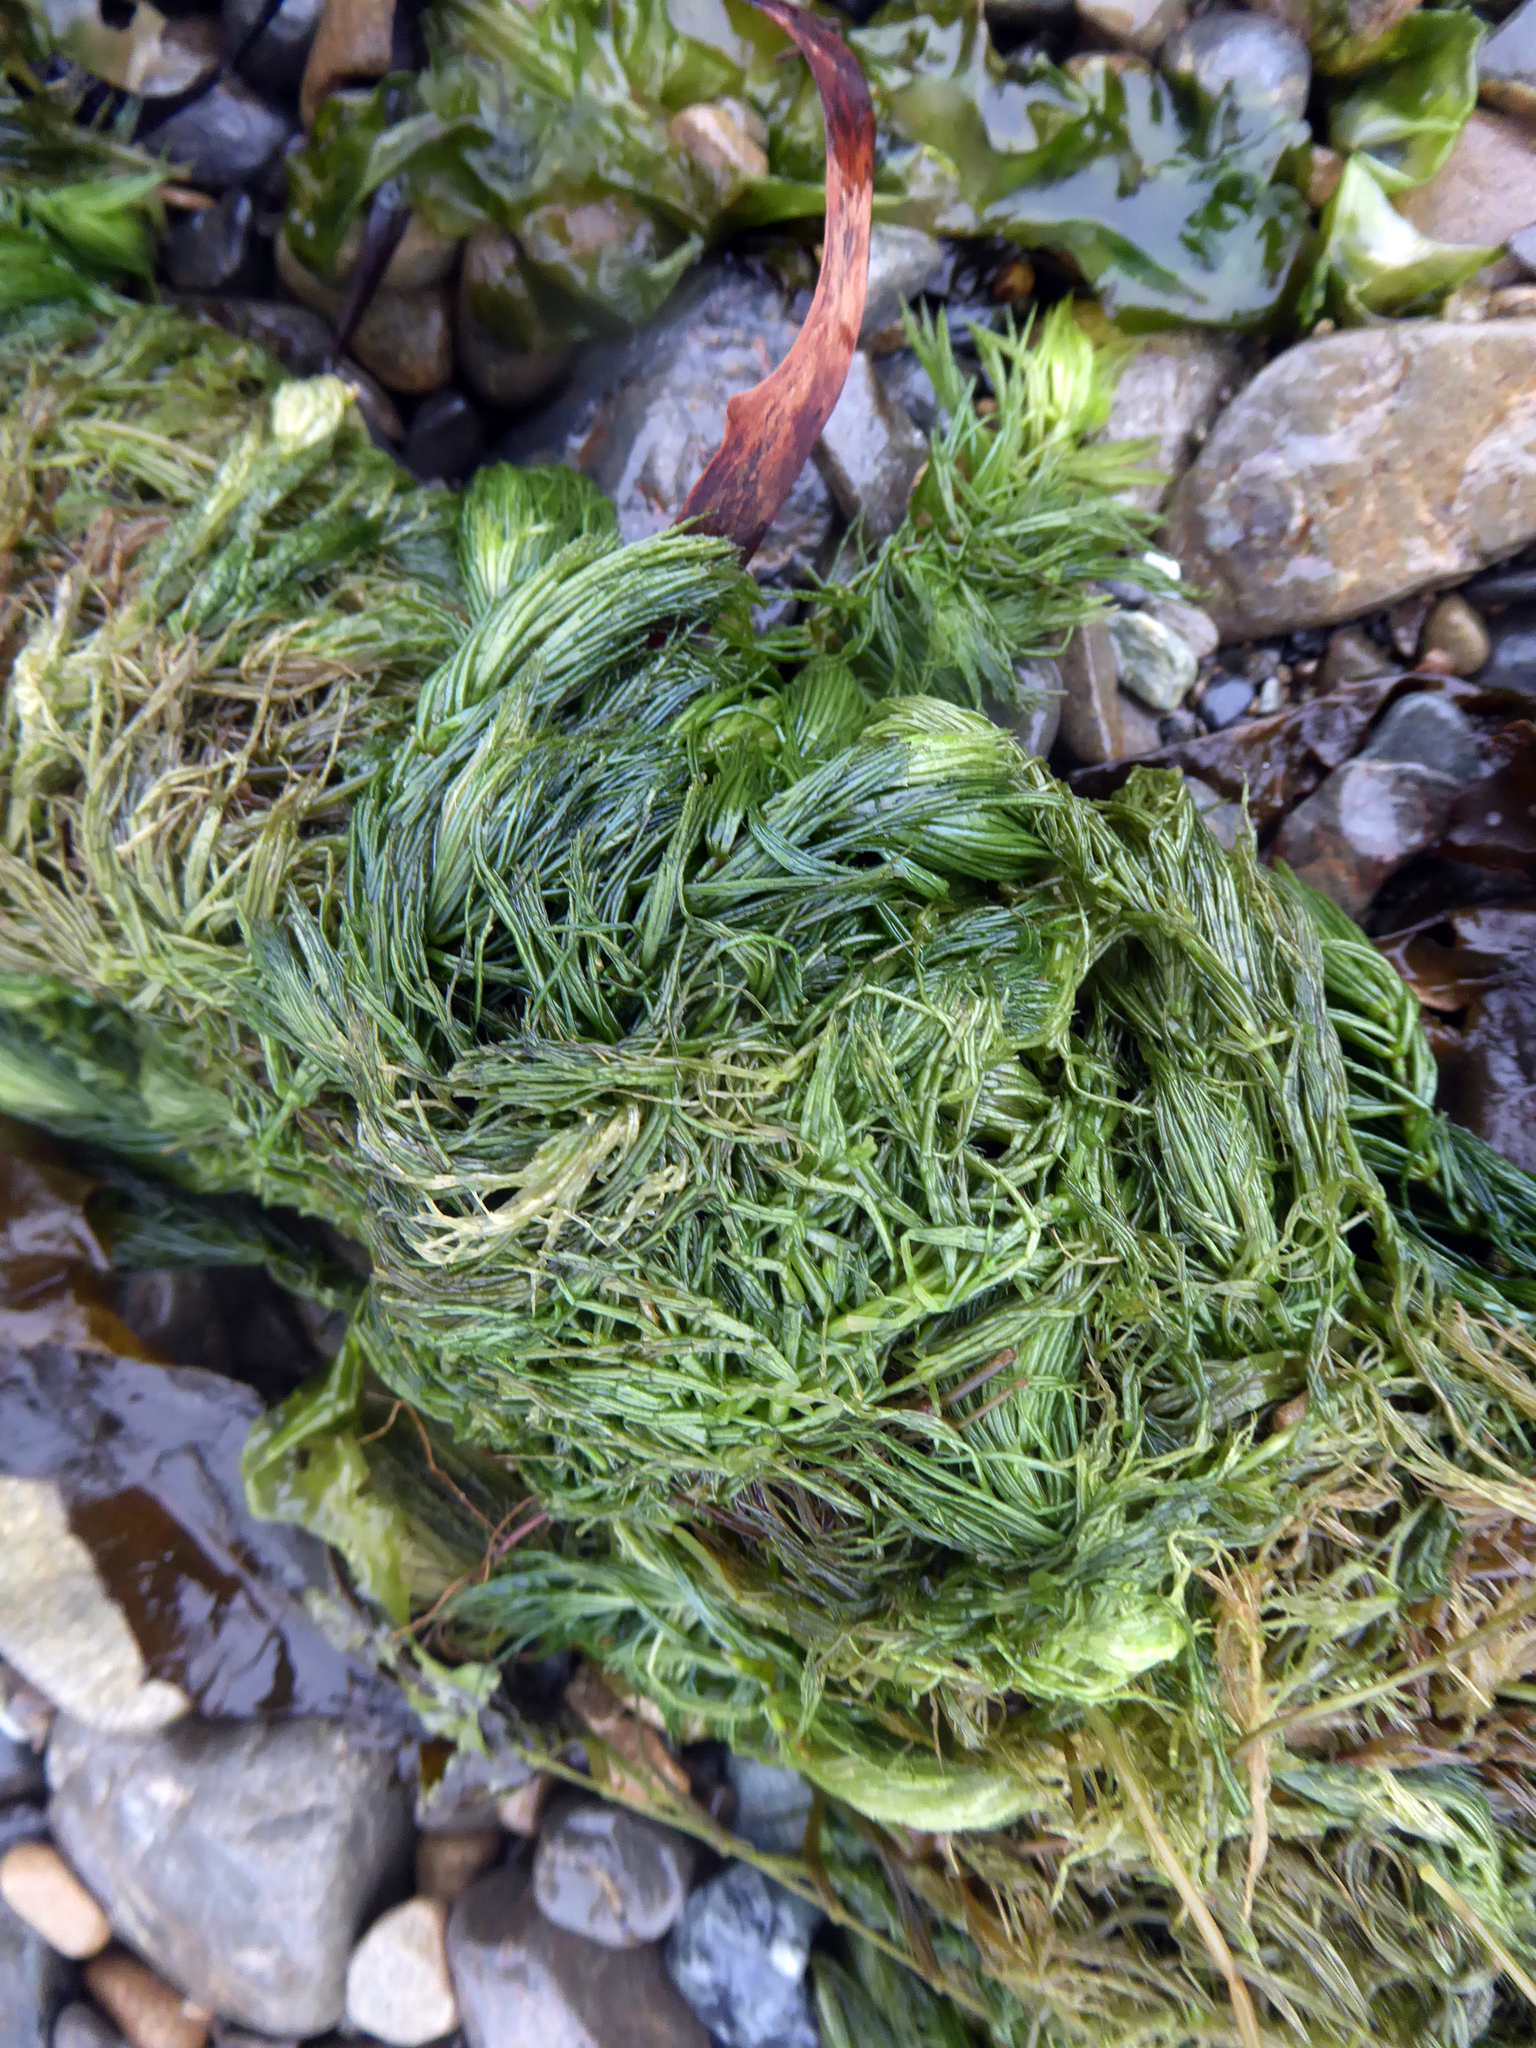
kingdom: Plantae
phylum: Tracheophyta
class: Magnoliopsida
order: Ceratophyllales
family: Ceratophyllaceae
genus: Ceratophyllum
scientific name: Ceratophyllum demersum
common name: Rigid hornwort
